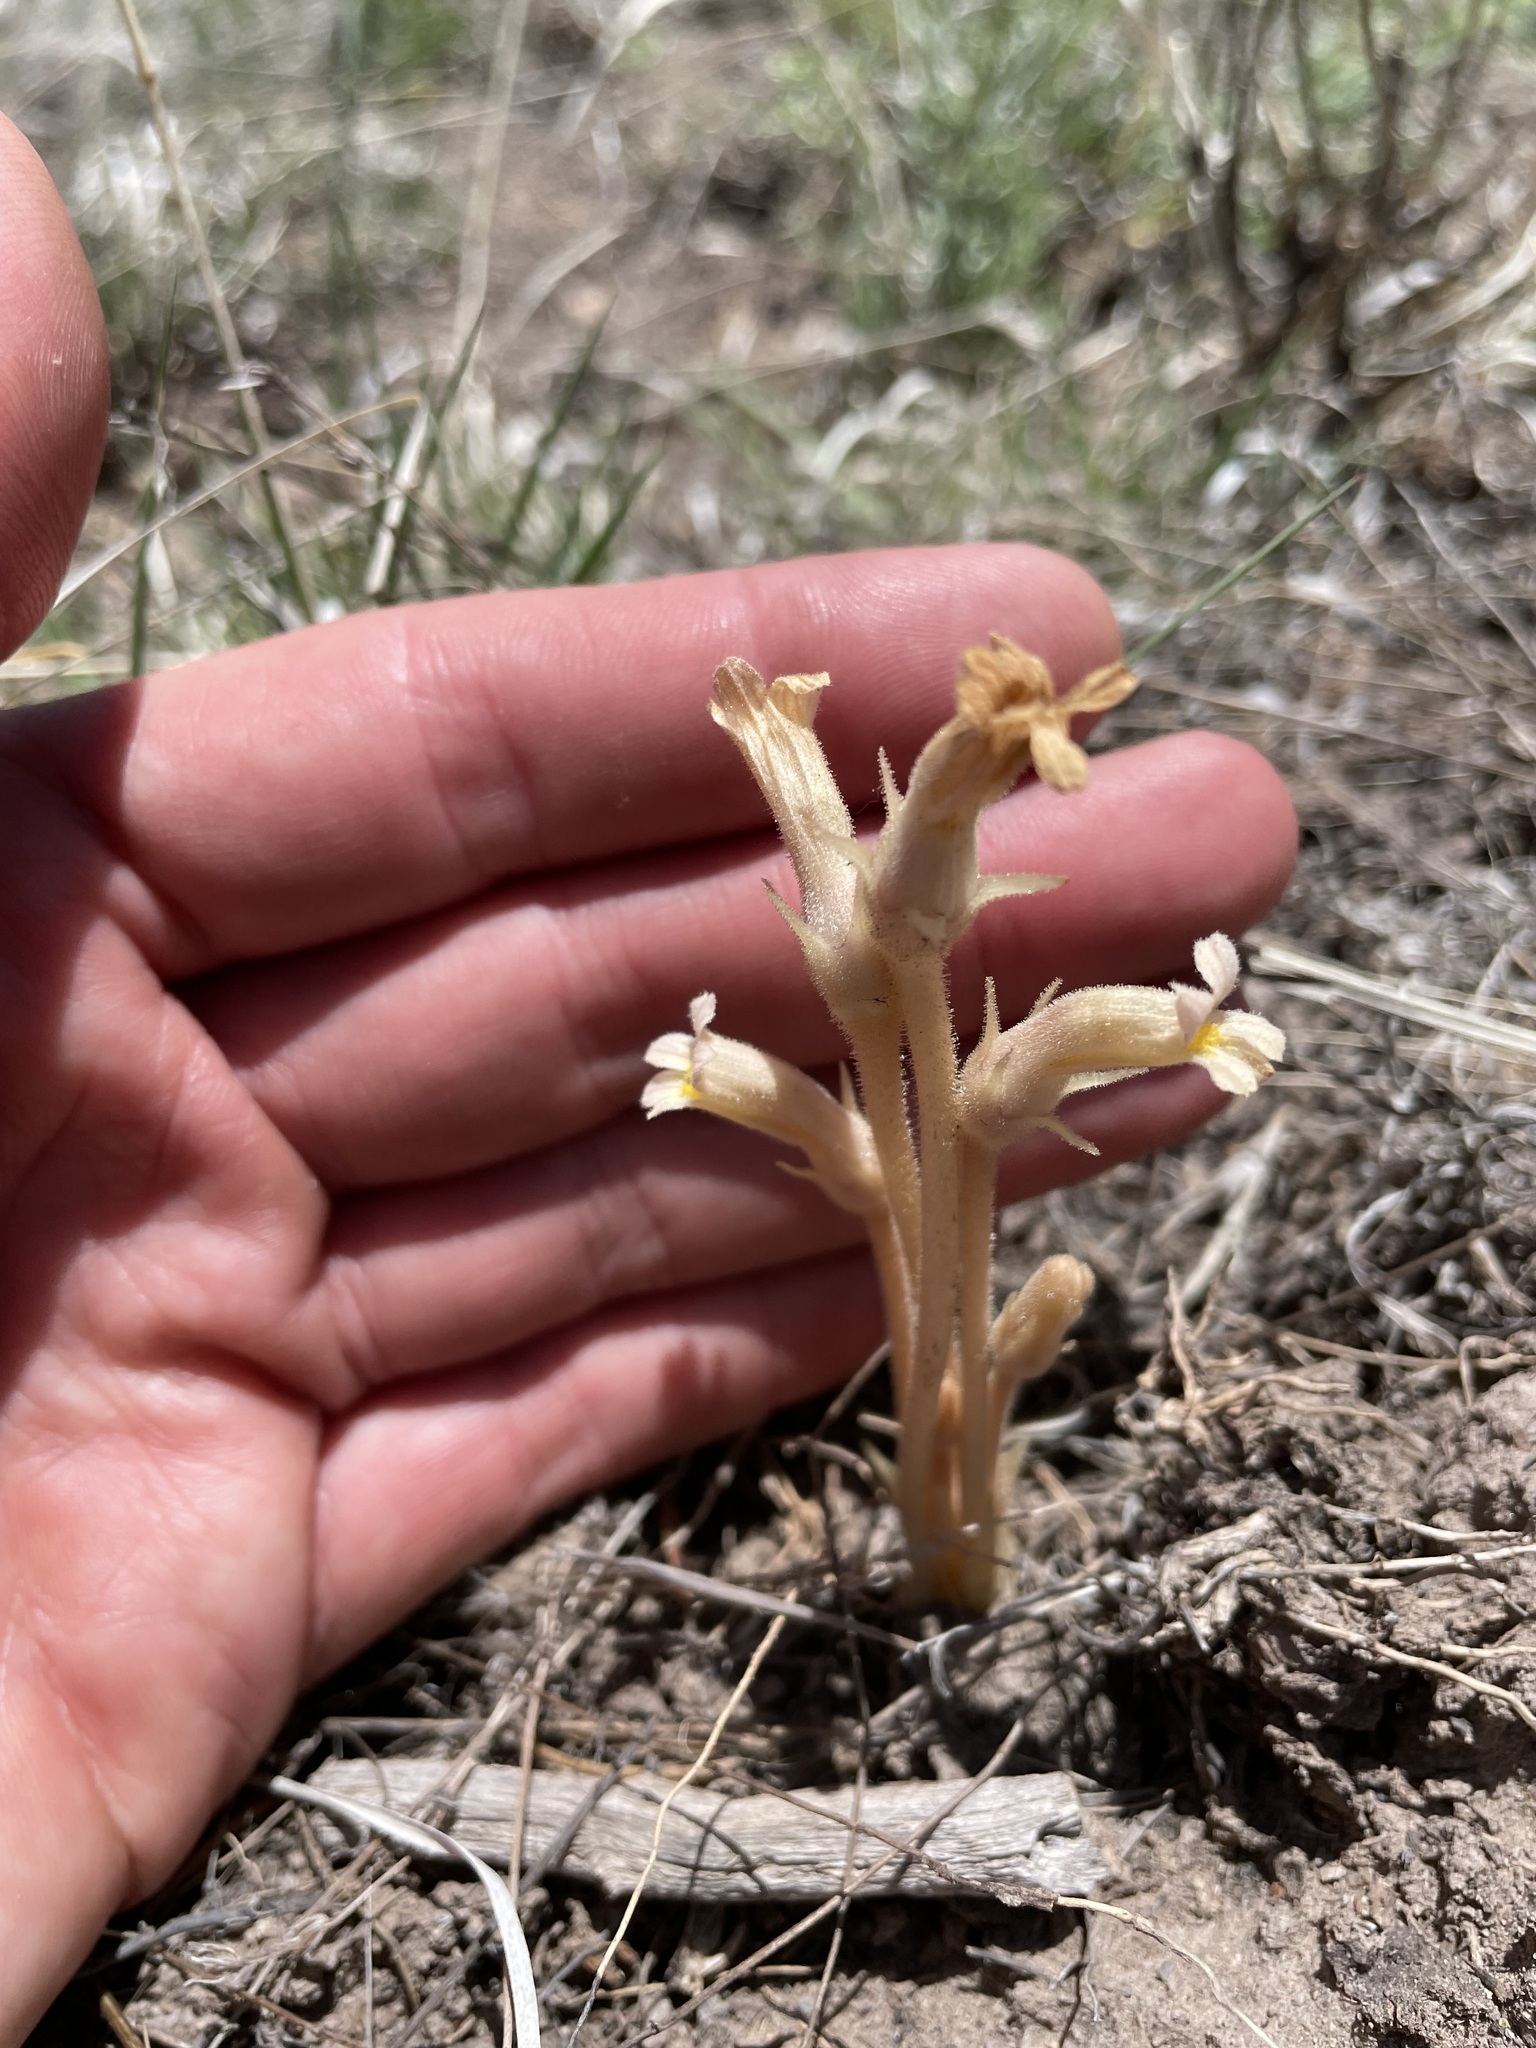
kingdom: Plantae
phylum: Tracheophyta
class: Magnoliopsida
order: Lamiales
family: Orobanchaceae
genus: Aphyllon
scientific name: Aphyllon fasciculatum
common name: Clustered broomrape
